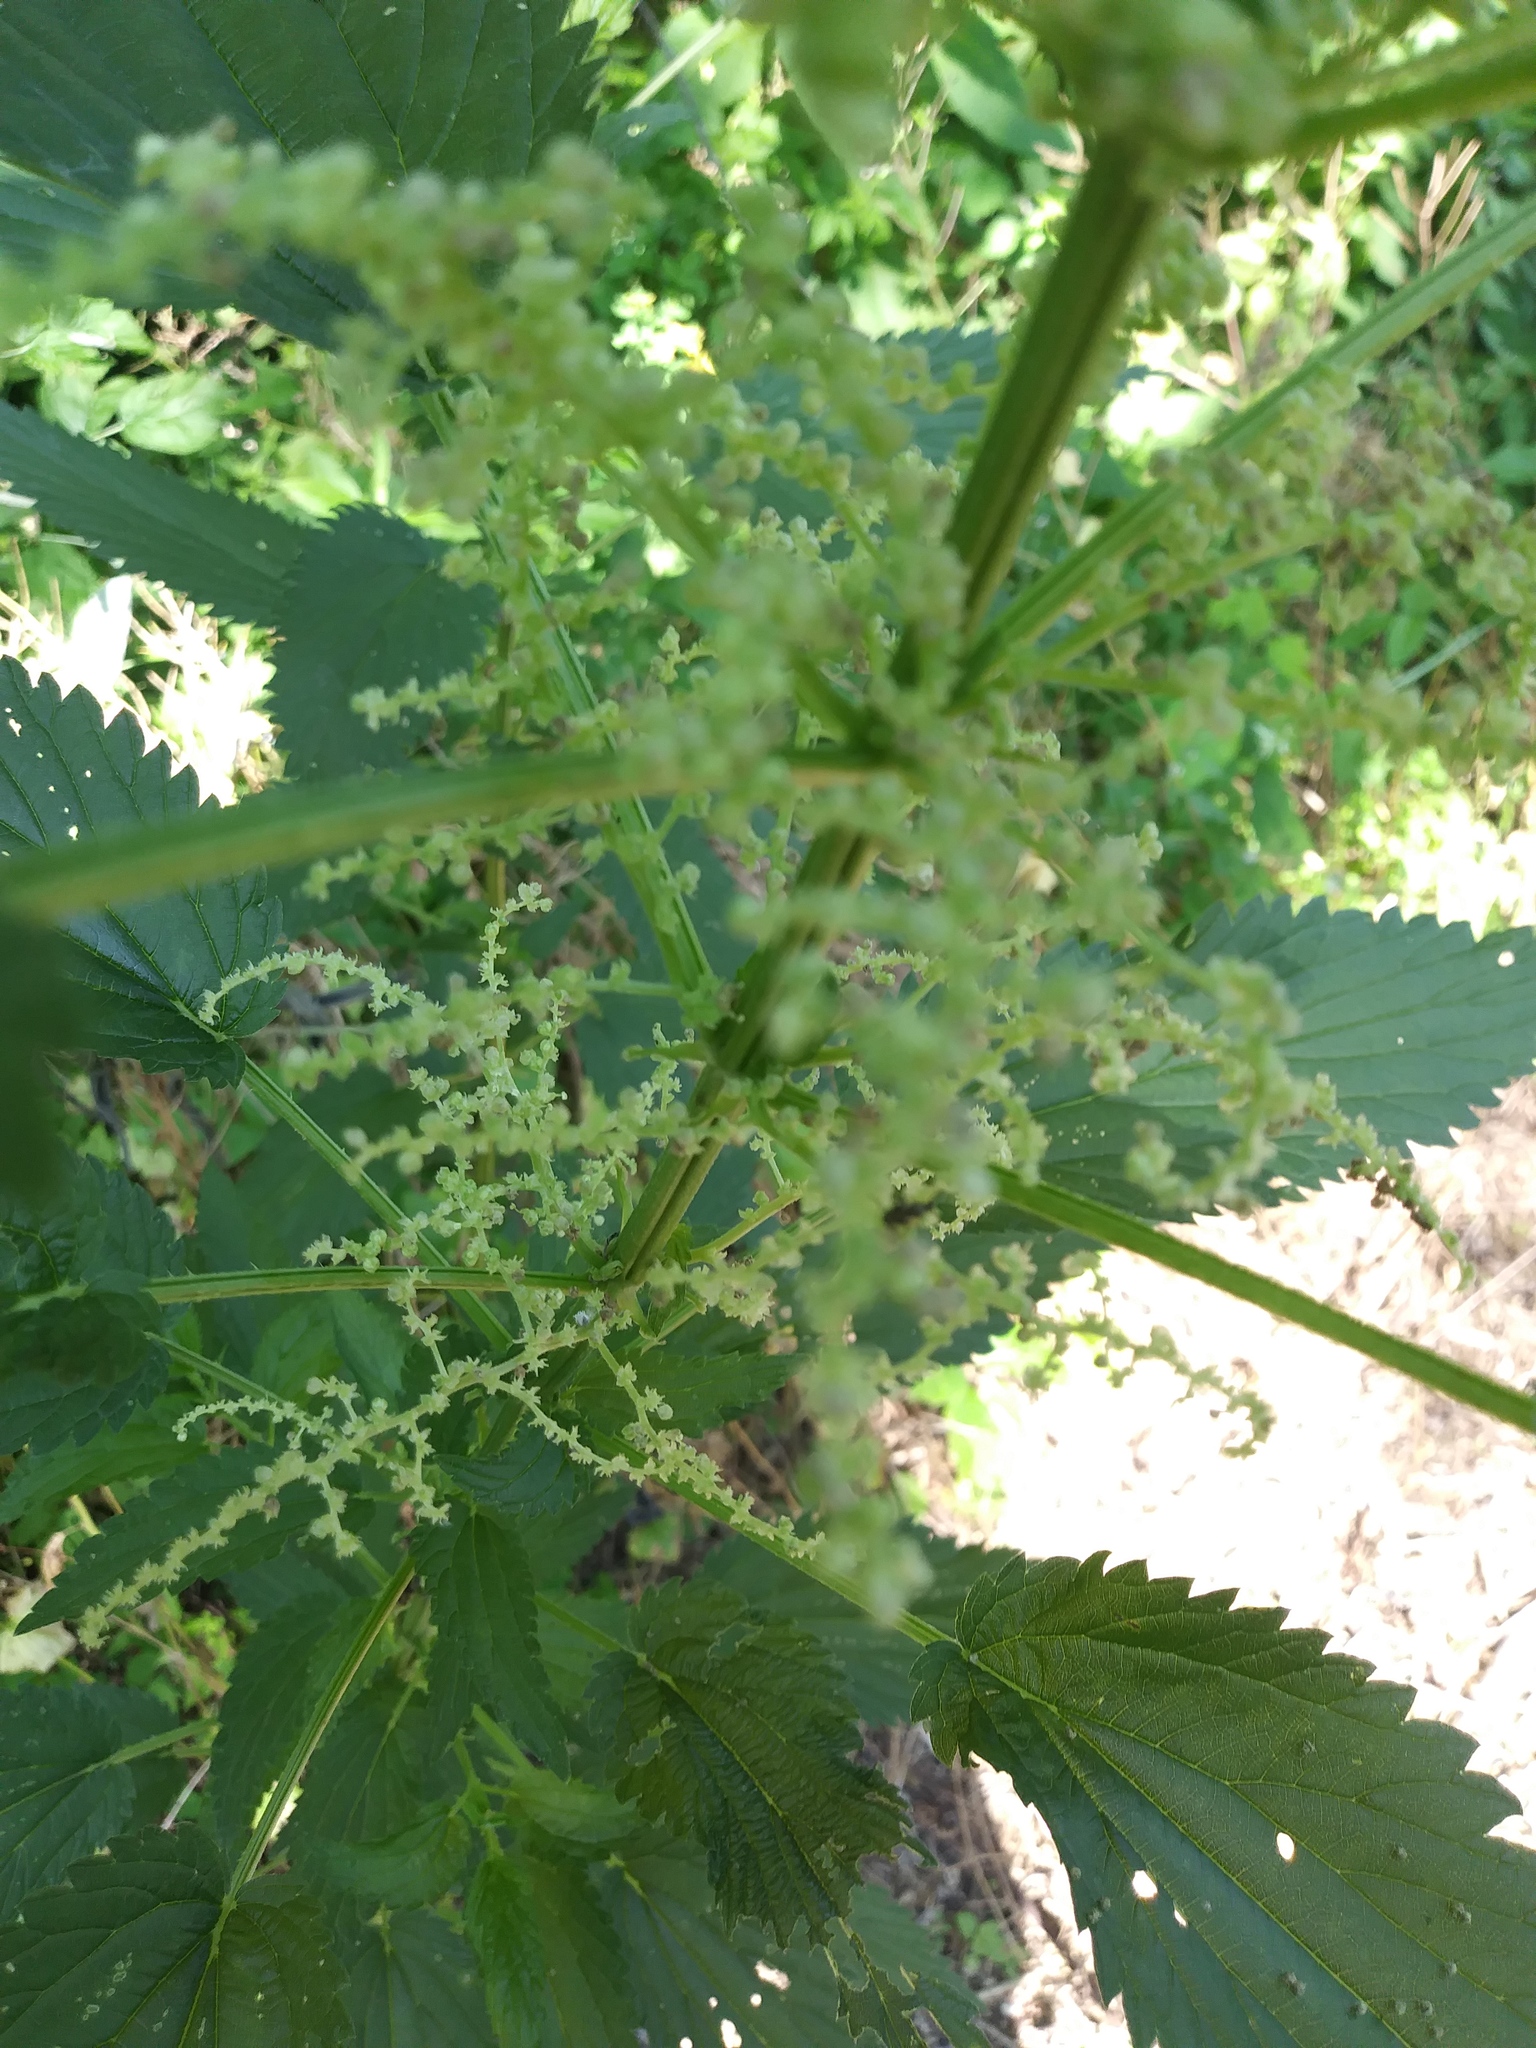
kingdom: Plantae
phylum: Tracheophyta
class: Magnoliopsida
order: Rosales
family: Urticaceae
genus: Urtica
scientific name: Urtica dioica
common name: Common nettle
